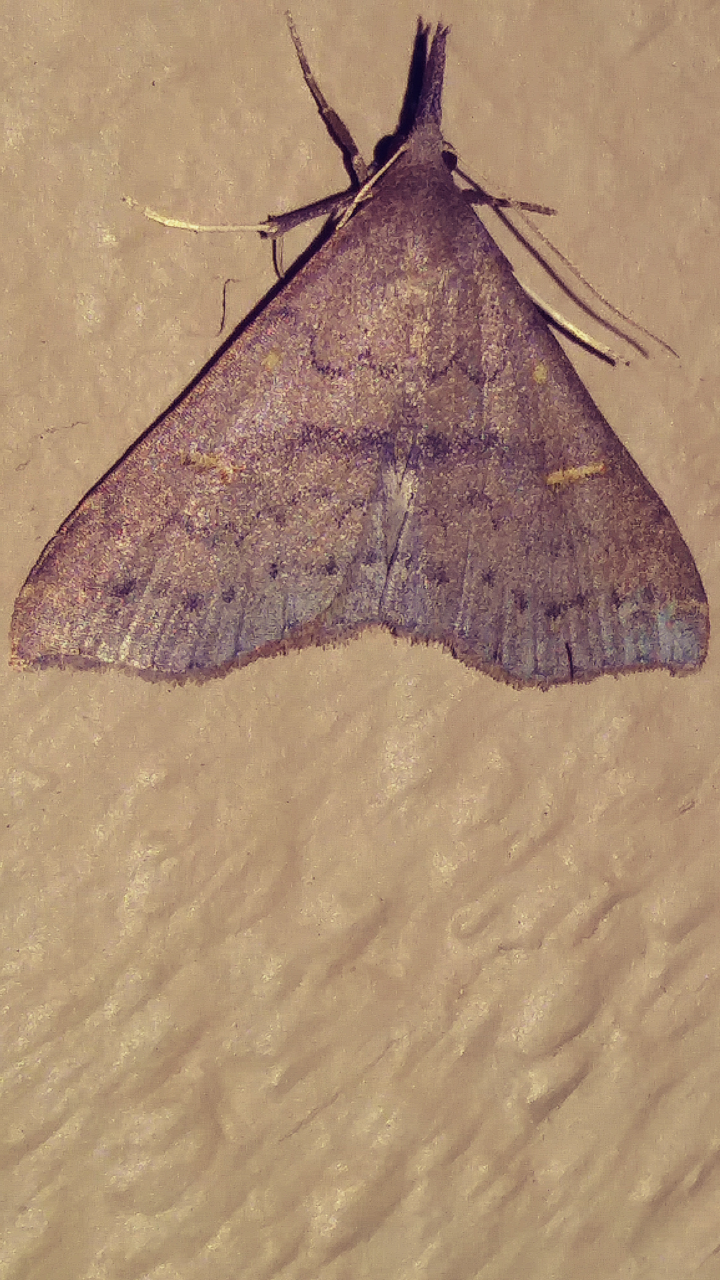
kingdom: Animalia
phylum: Arthropoda
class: Insecta
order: Lepidoptera
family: Erebidae
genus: Renia
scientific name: Renia adspergillus
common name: Speckled renia moth
